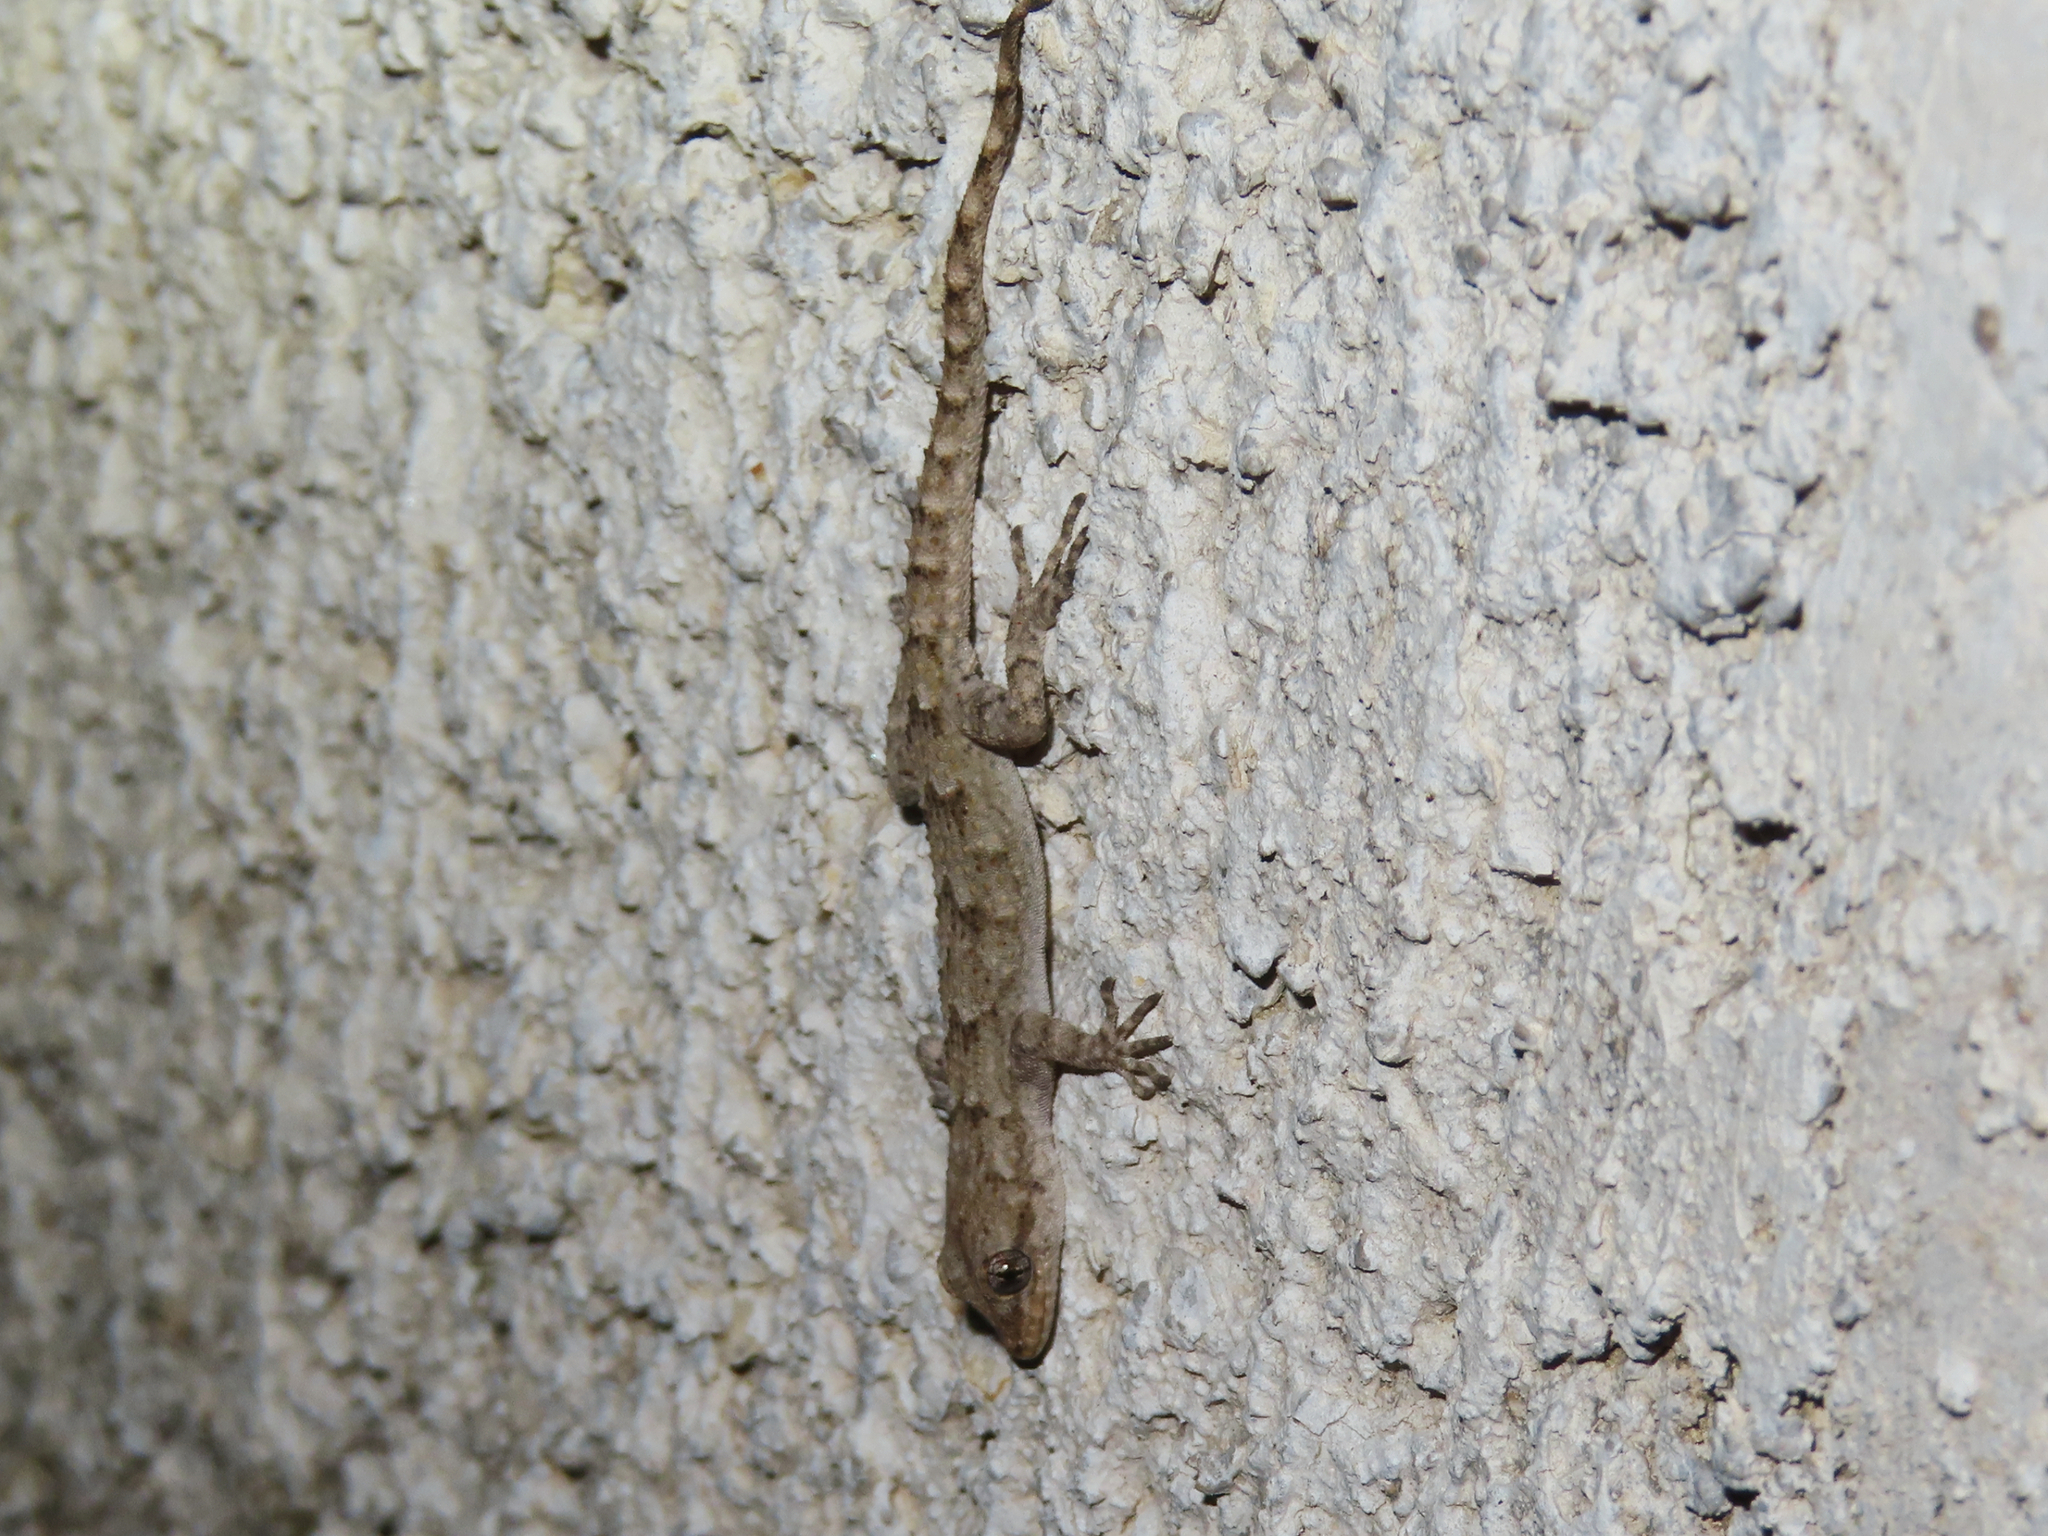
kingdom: Animalia
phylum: Chordata
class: Squamata
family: Gekkonidae
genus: Mediodactylus
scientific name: Mediodactylus kotschyi
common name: Kotschy's gecko
